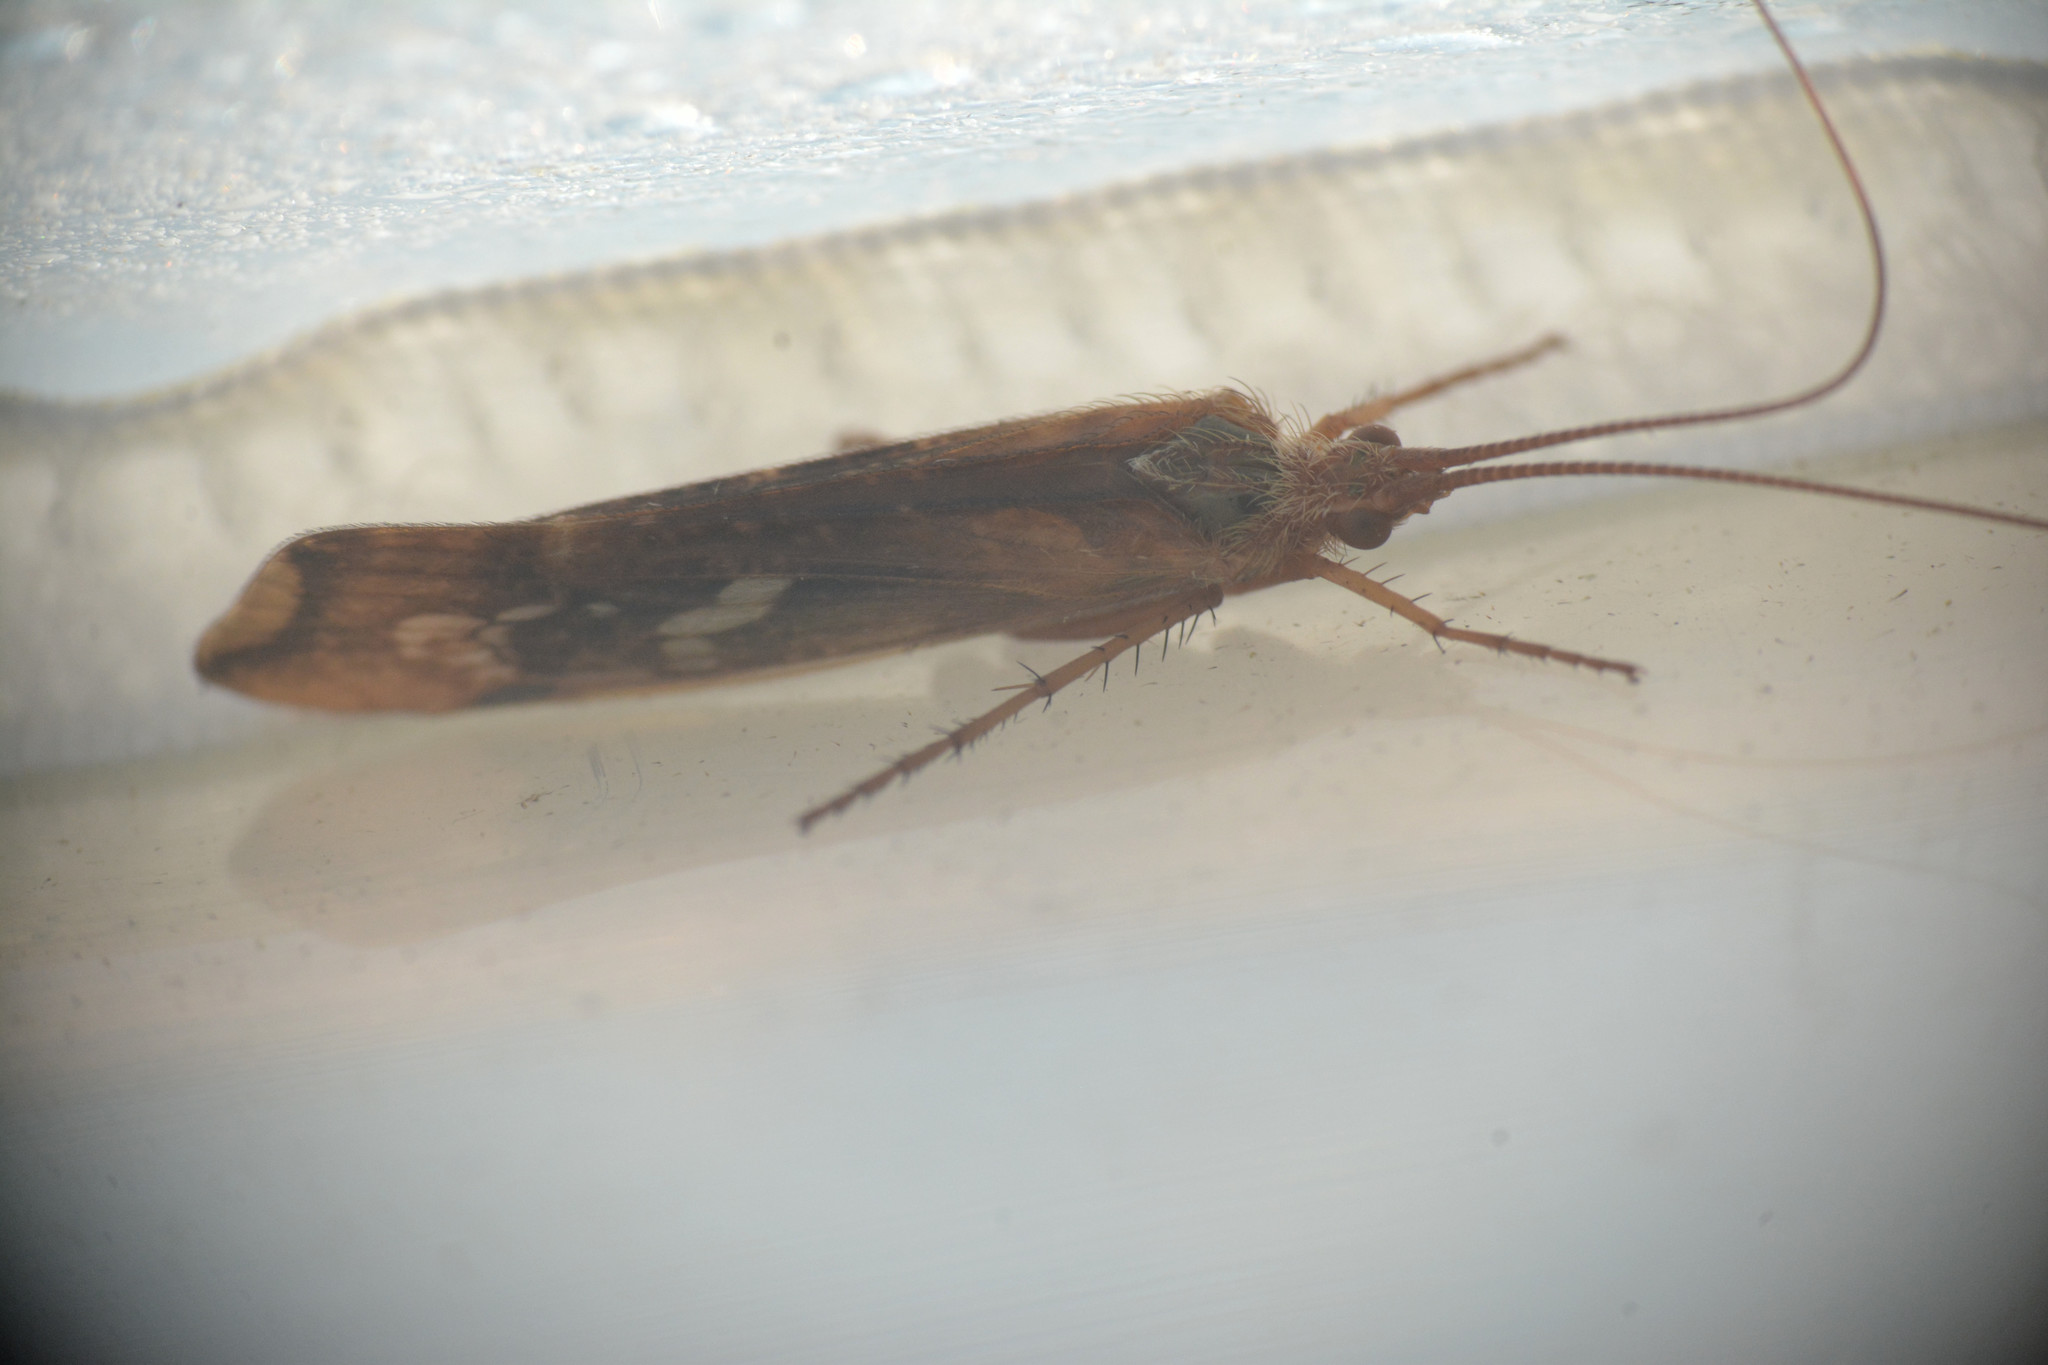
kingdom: Animalia
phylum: Arthropoda
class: Insecta
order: Trichoptera
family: Limnephilidae
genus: Limnephilus
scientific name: Limnephilus lunatus
